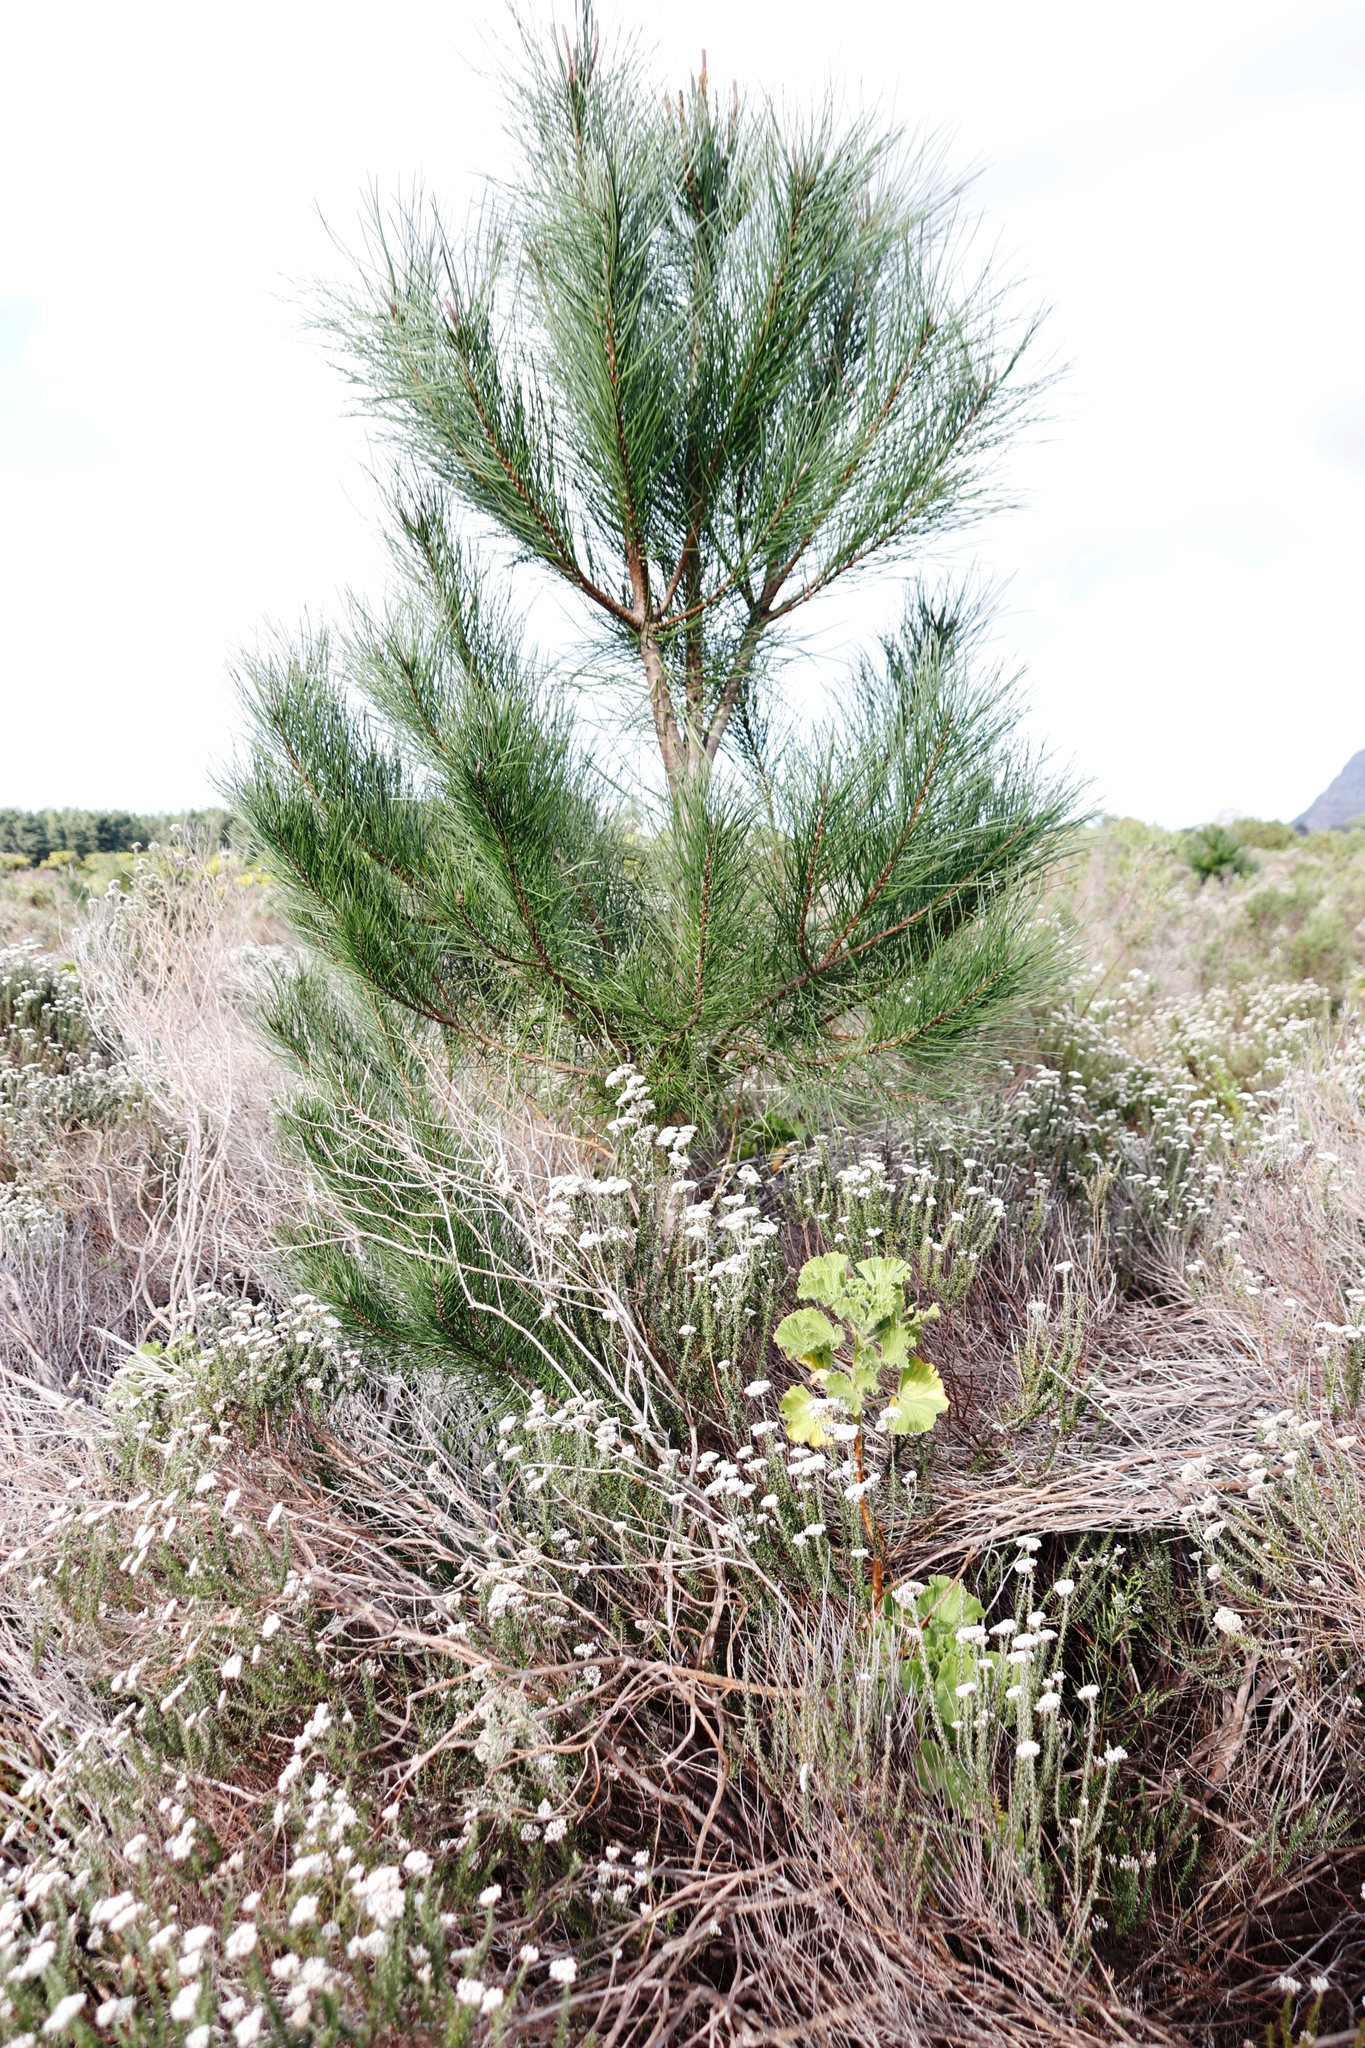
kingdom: Plantae
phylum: Tracheophyta
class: Pinopsida
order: Pinales
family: Pinaceae
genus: Pinus
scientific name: Pinus radiata
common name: Monterey pine
